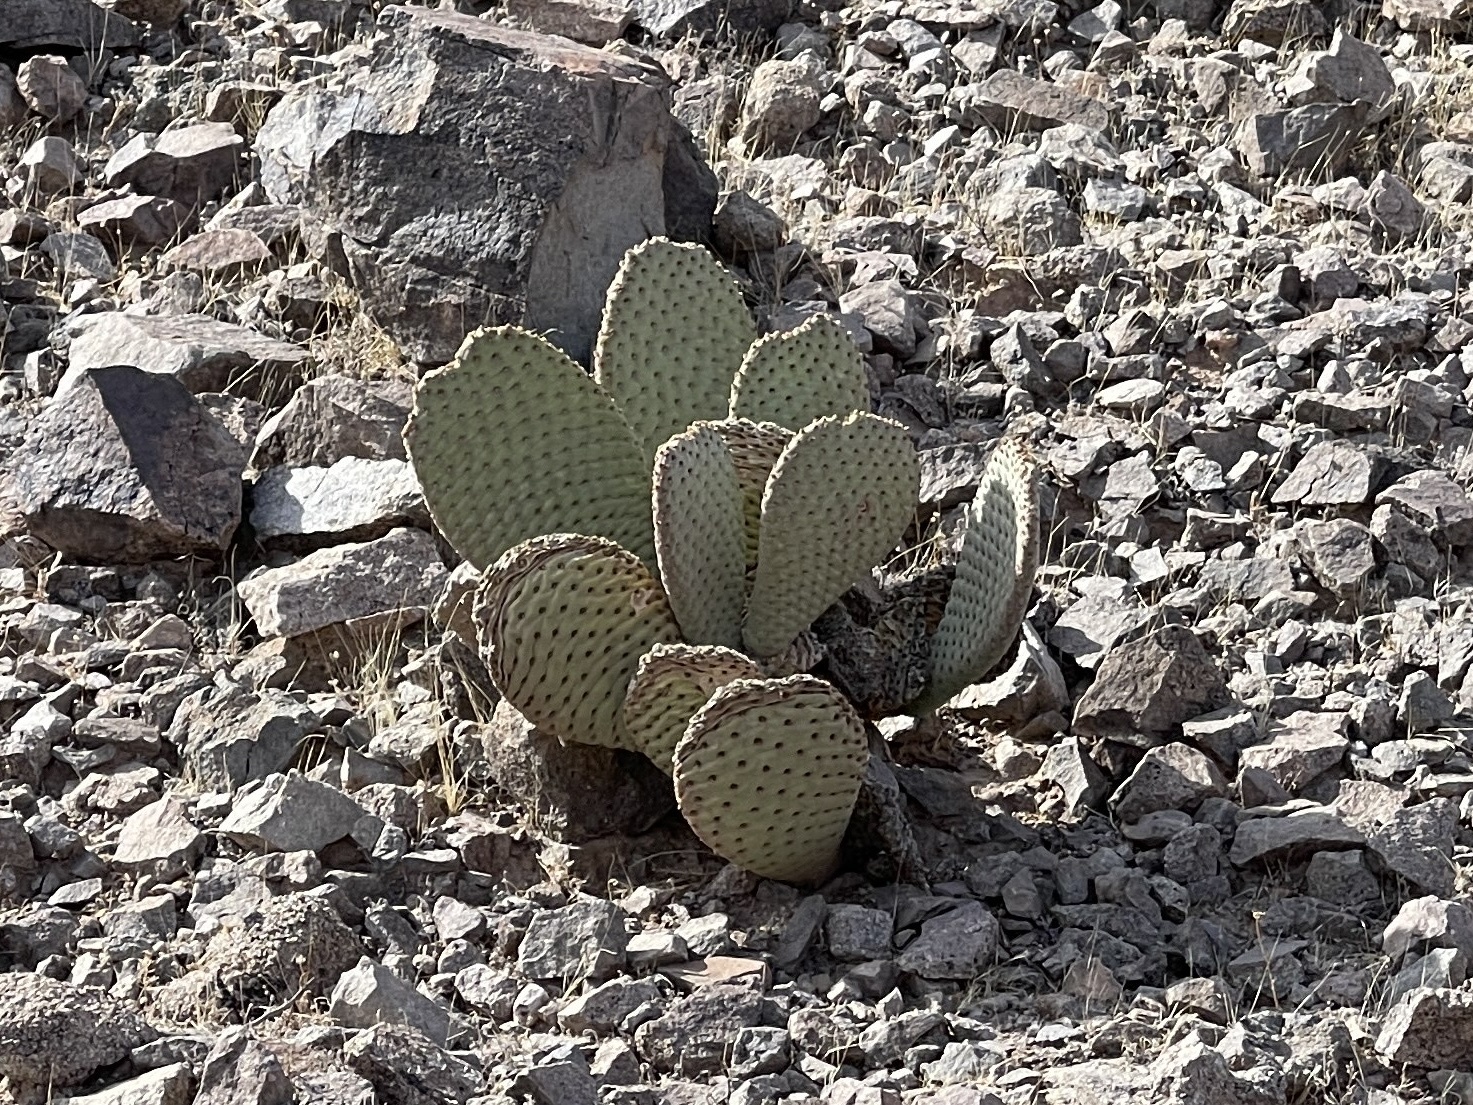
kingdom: Plantae
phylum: Tracheophyta
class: Magnoliopsida
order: Caryophyllales
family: Cactaceae
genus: Opuntia
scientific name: Opuntia basilaris
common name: Beavertail prickly-pear
